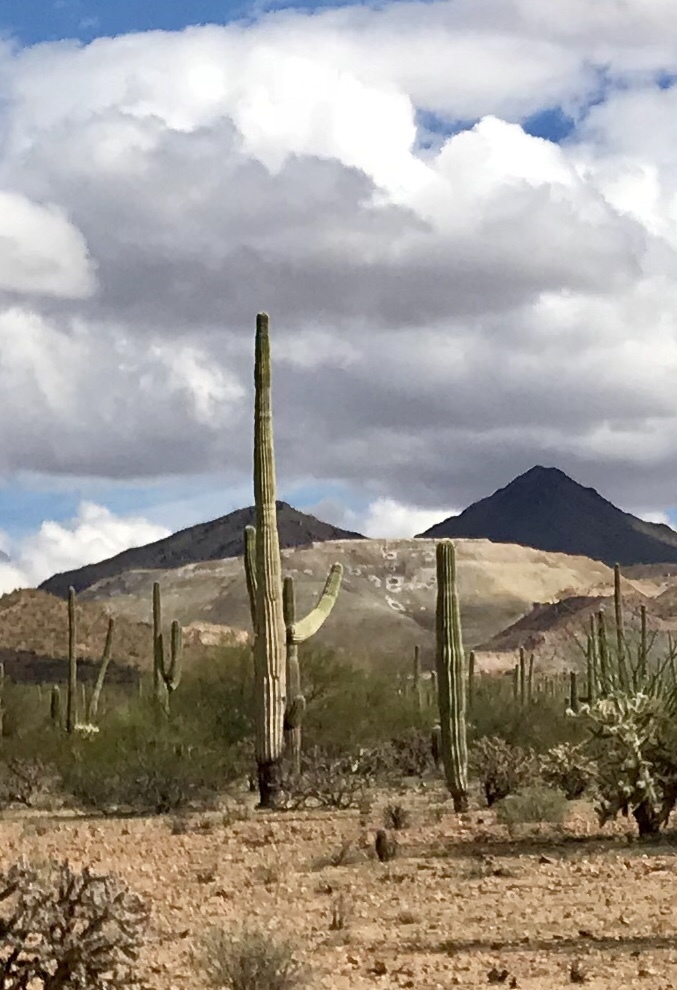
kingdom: Plantae
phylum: Tracheophyta
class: Magnoliopsida
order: Caryophyllales
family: Cactaceae
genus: Carnegiea
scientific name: Carnegiea gigantea
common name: Saguaro
